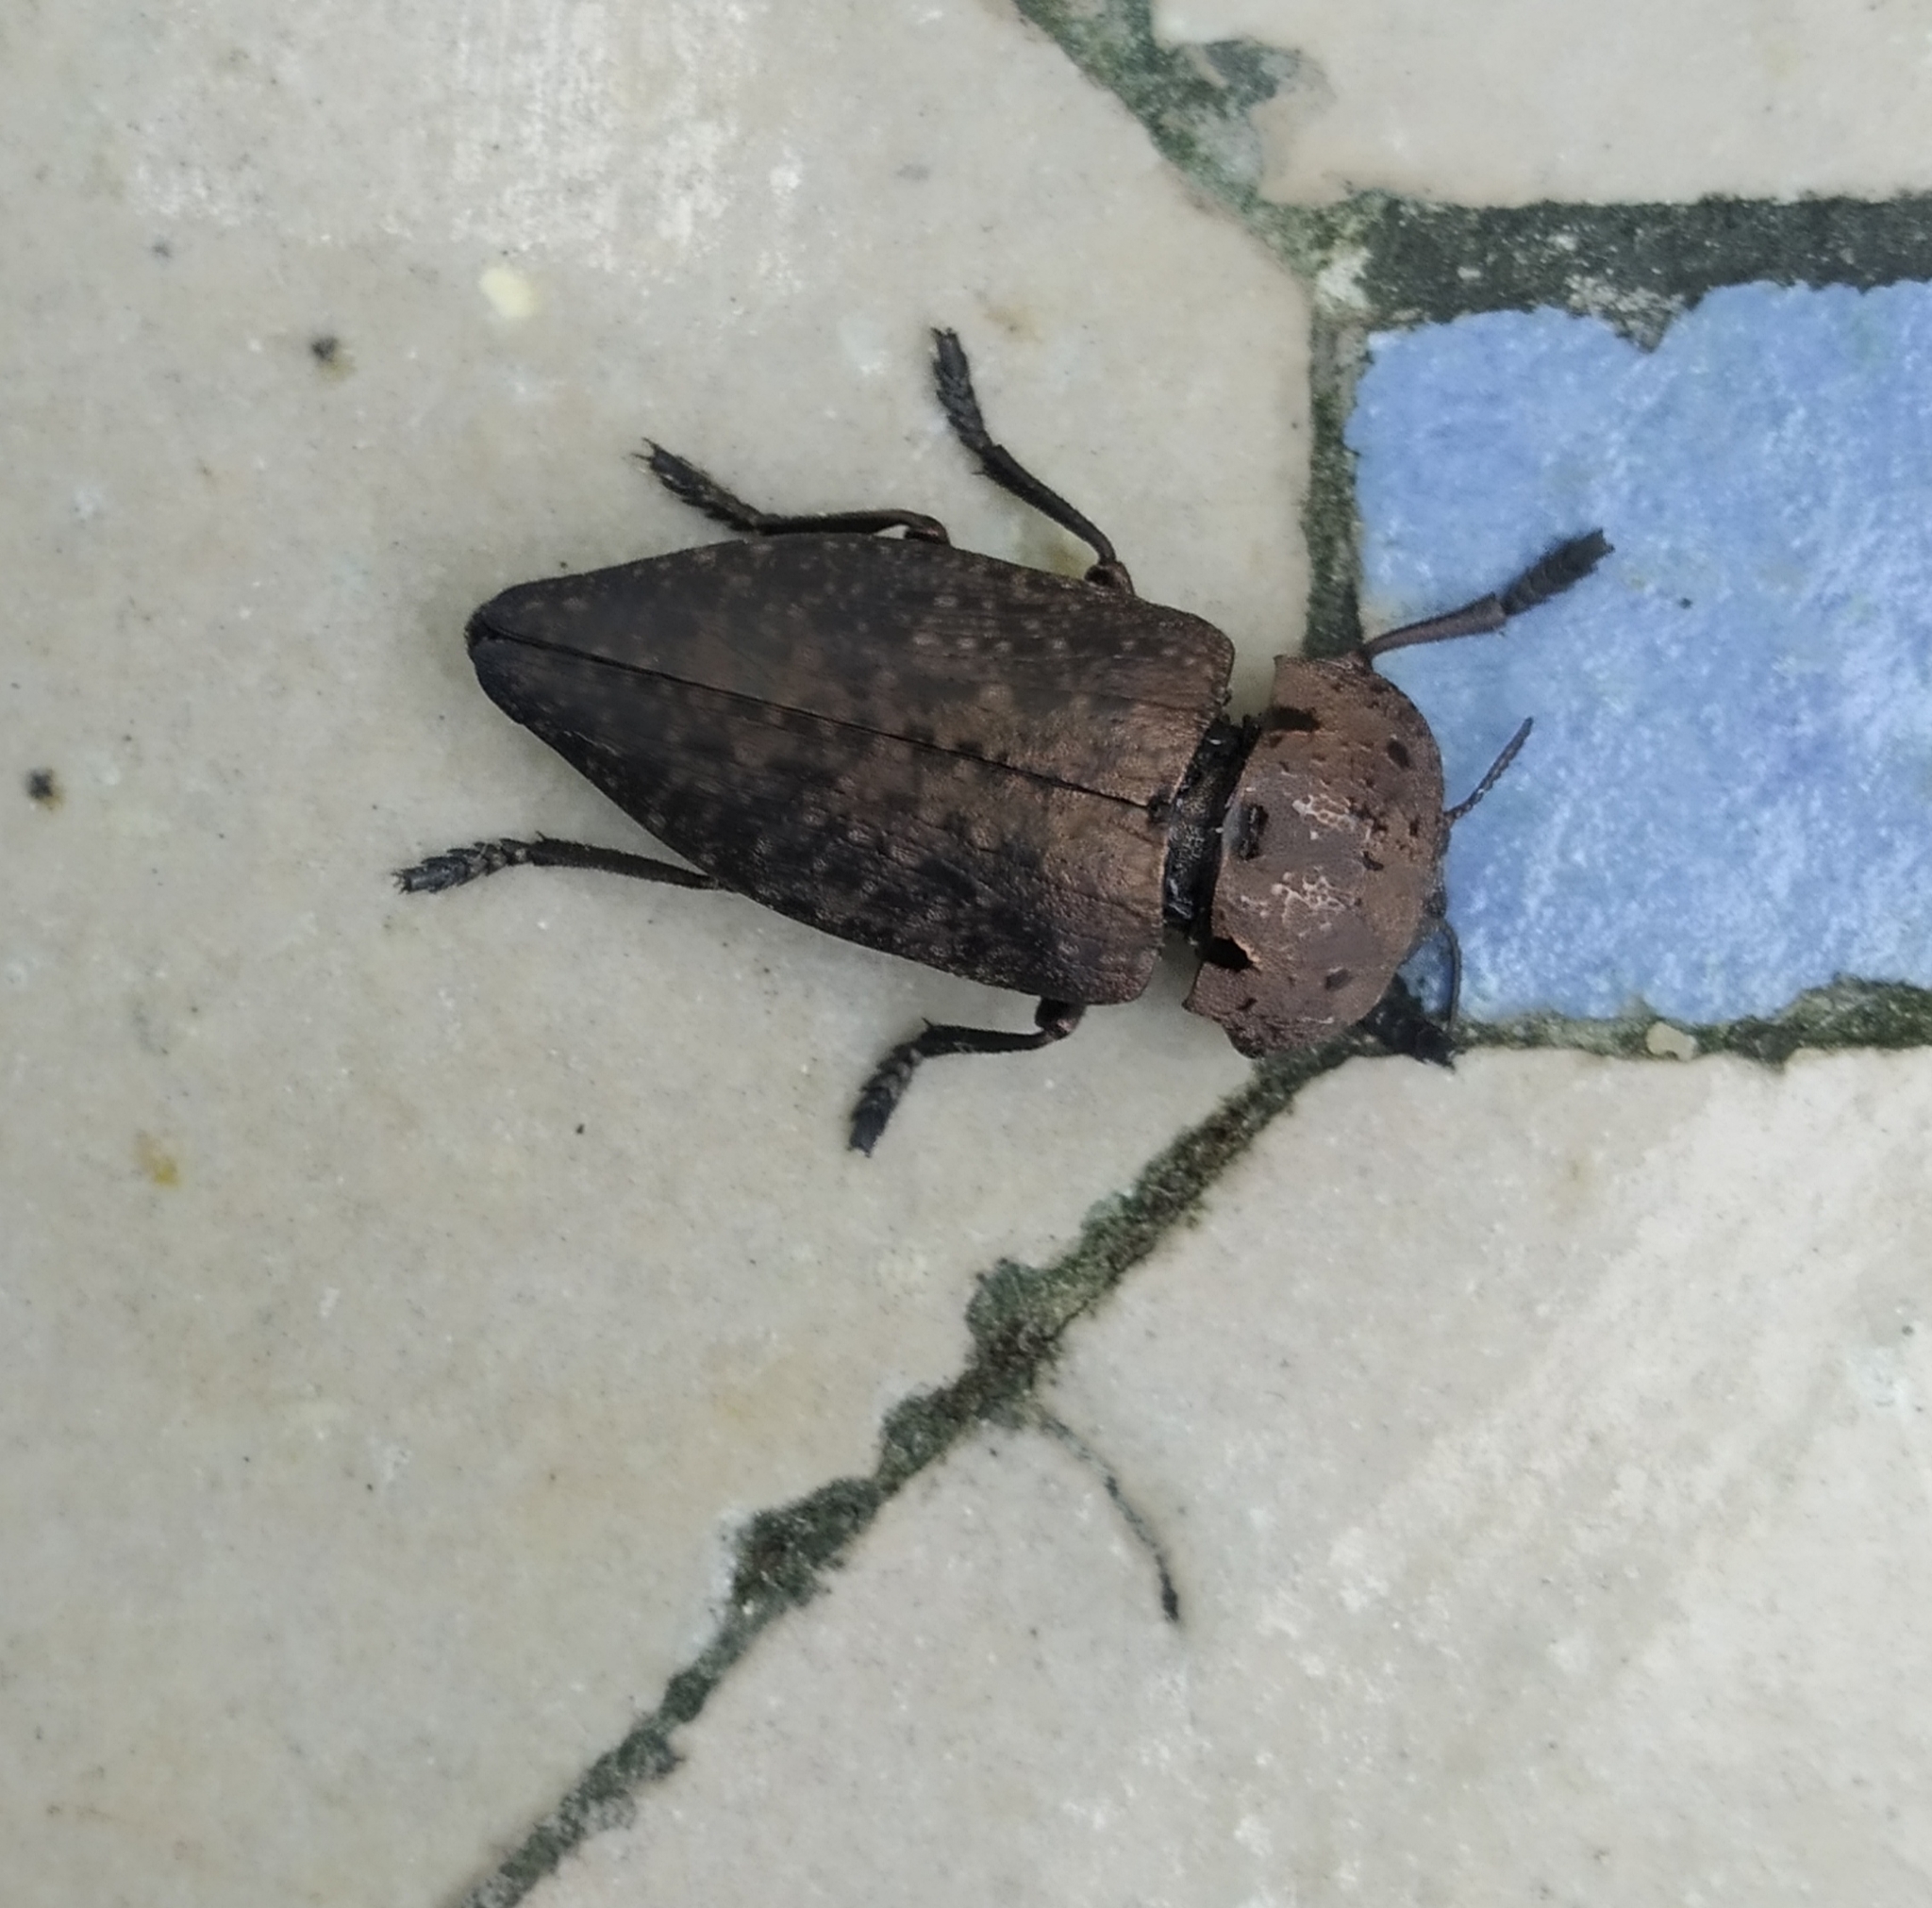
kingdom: Animalia
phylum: Arthropoda
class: Insecta
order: Coleoptera
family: Buprestidae
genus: Capnodis
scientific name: Capnodis tenebricosa
